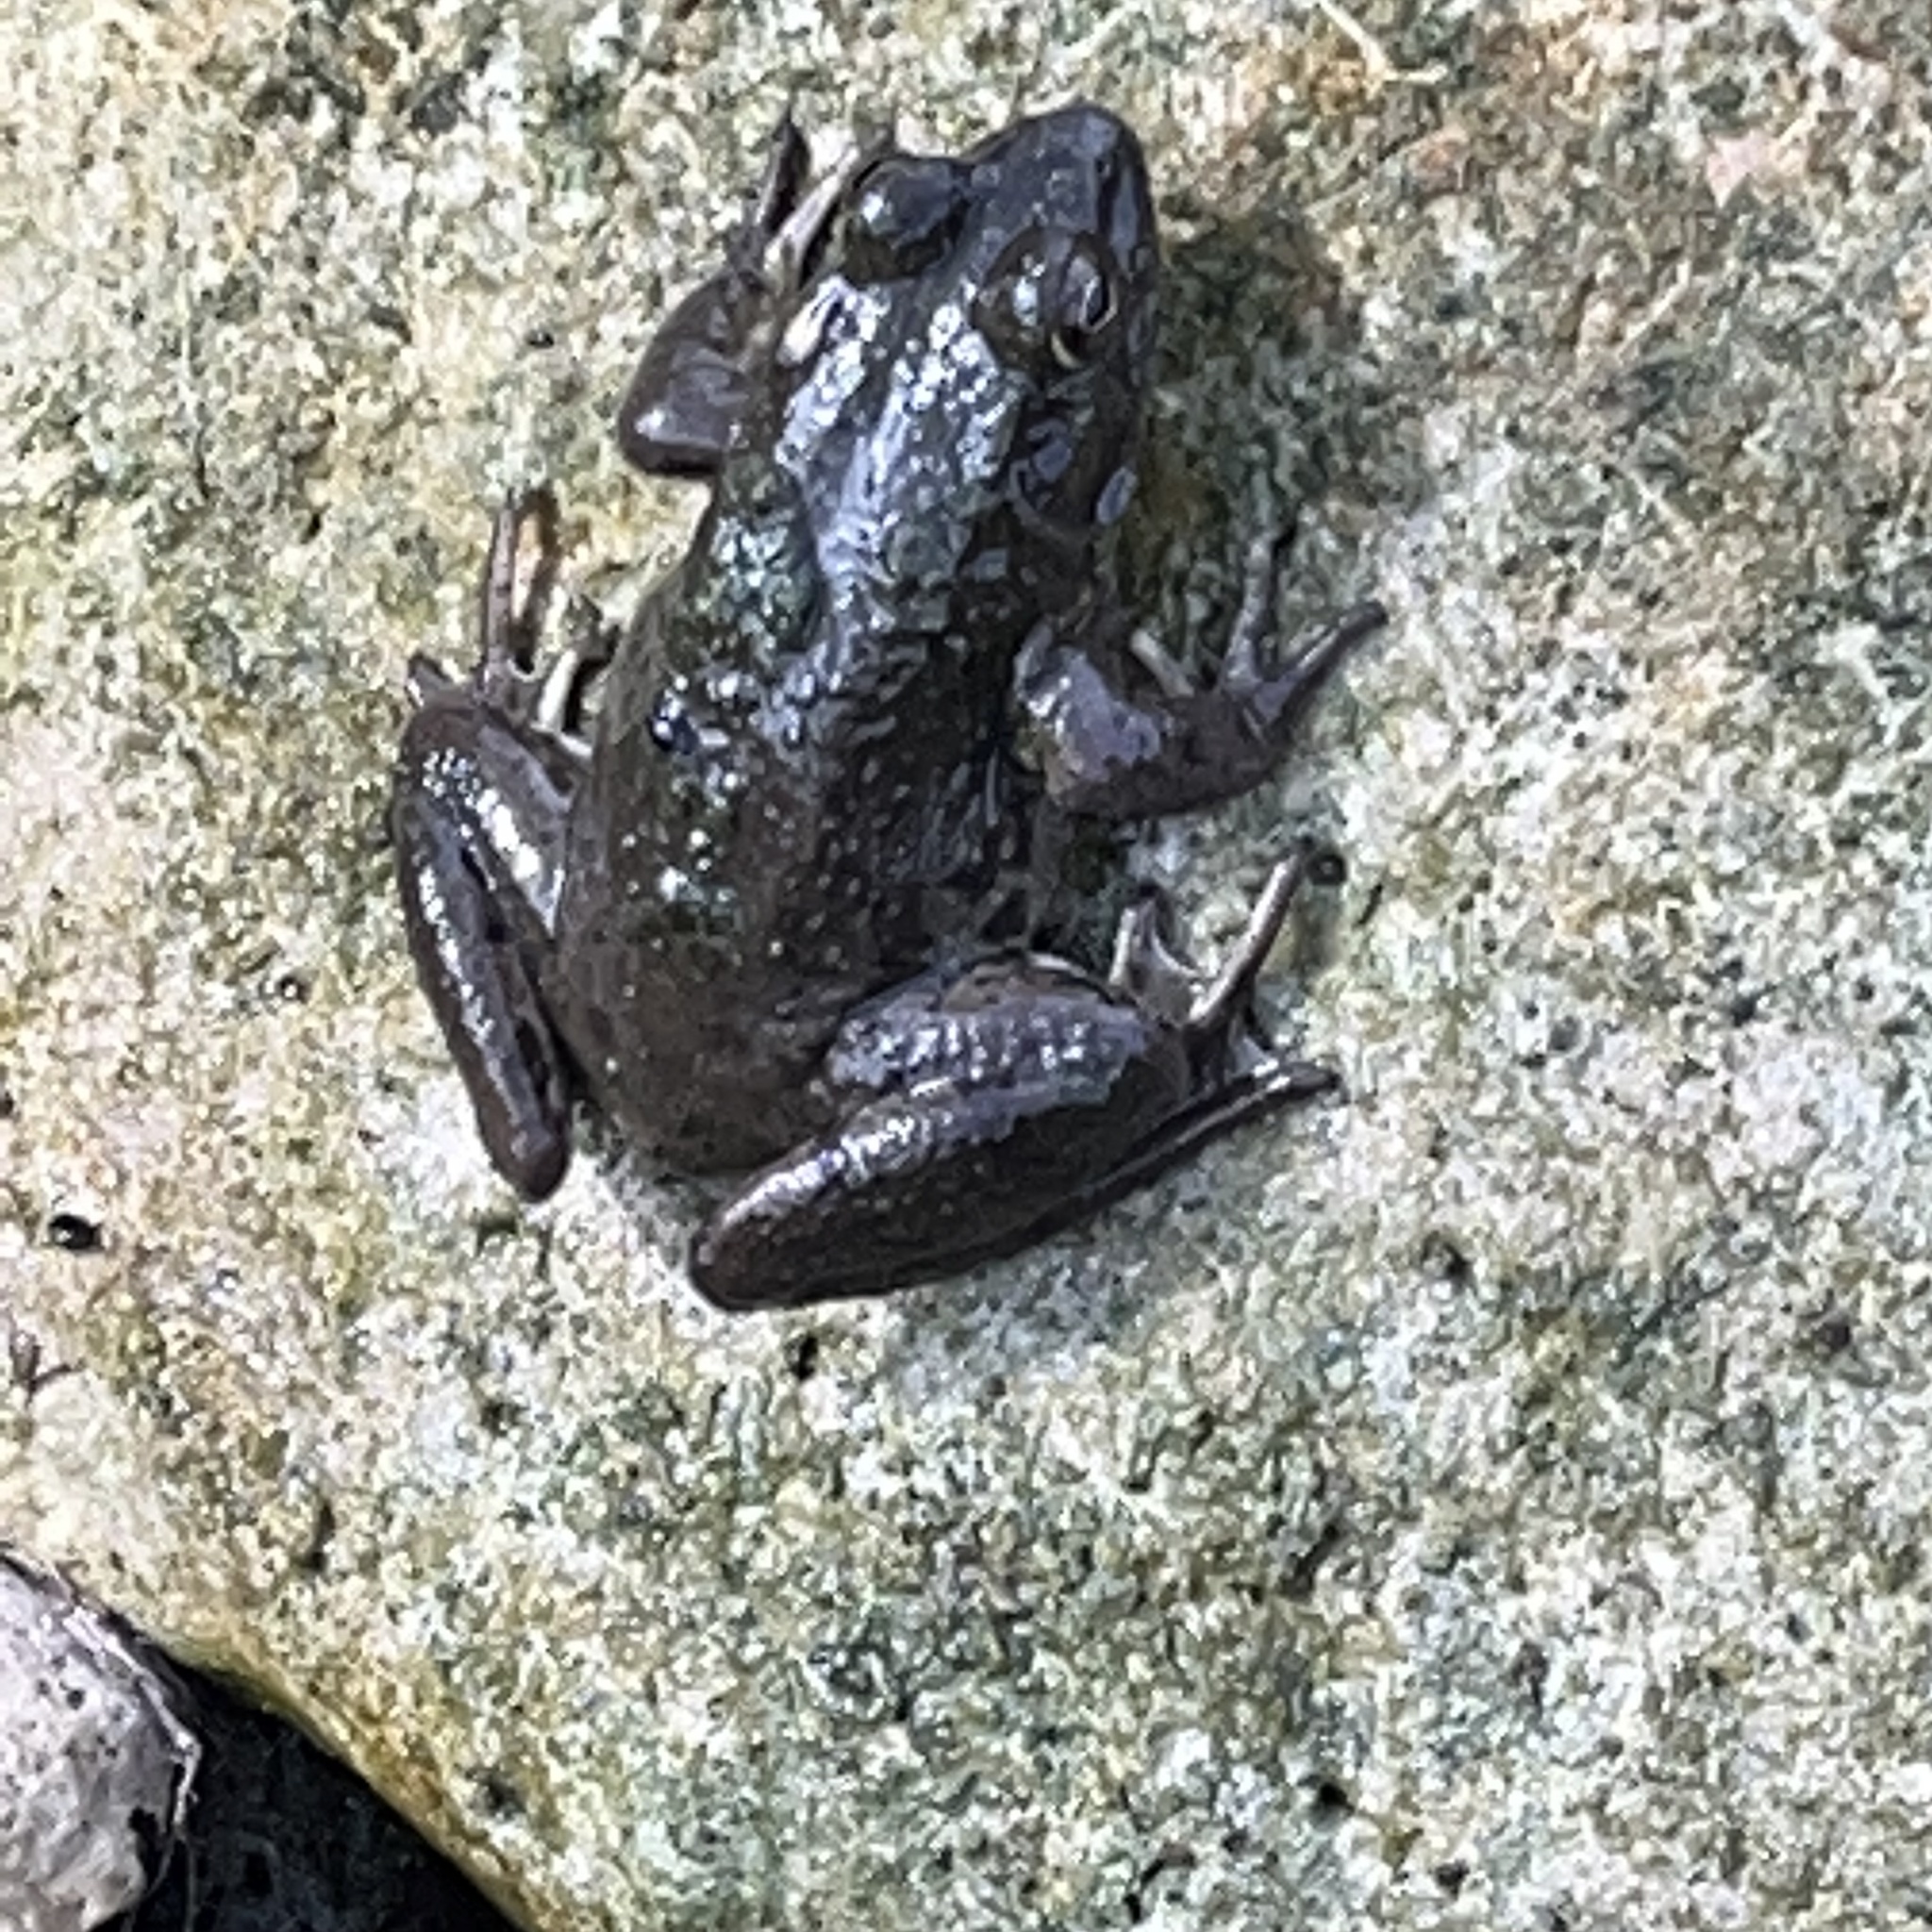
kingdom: Animalia
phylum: Chordata
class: Amphibia
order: Anura
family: Ranidae
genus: Lithobates
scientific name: Lithobates clamitans
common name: Green frog
